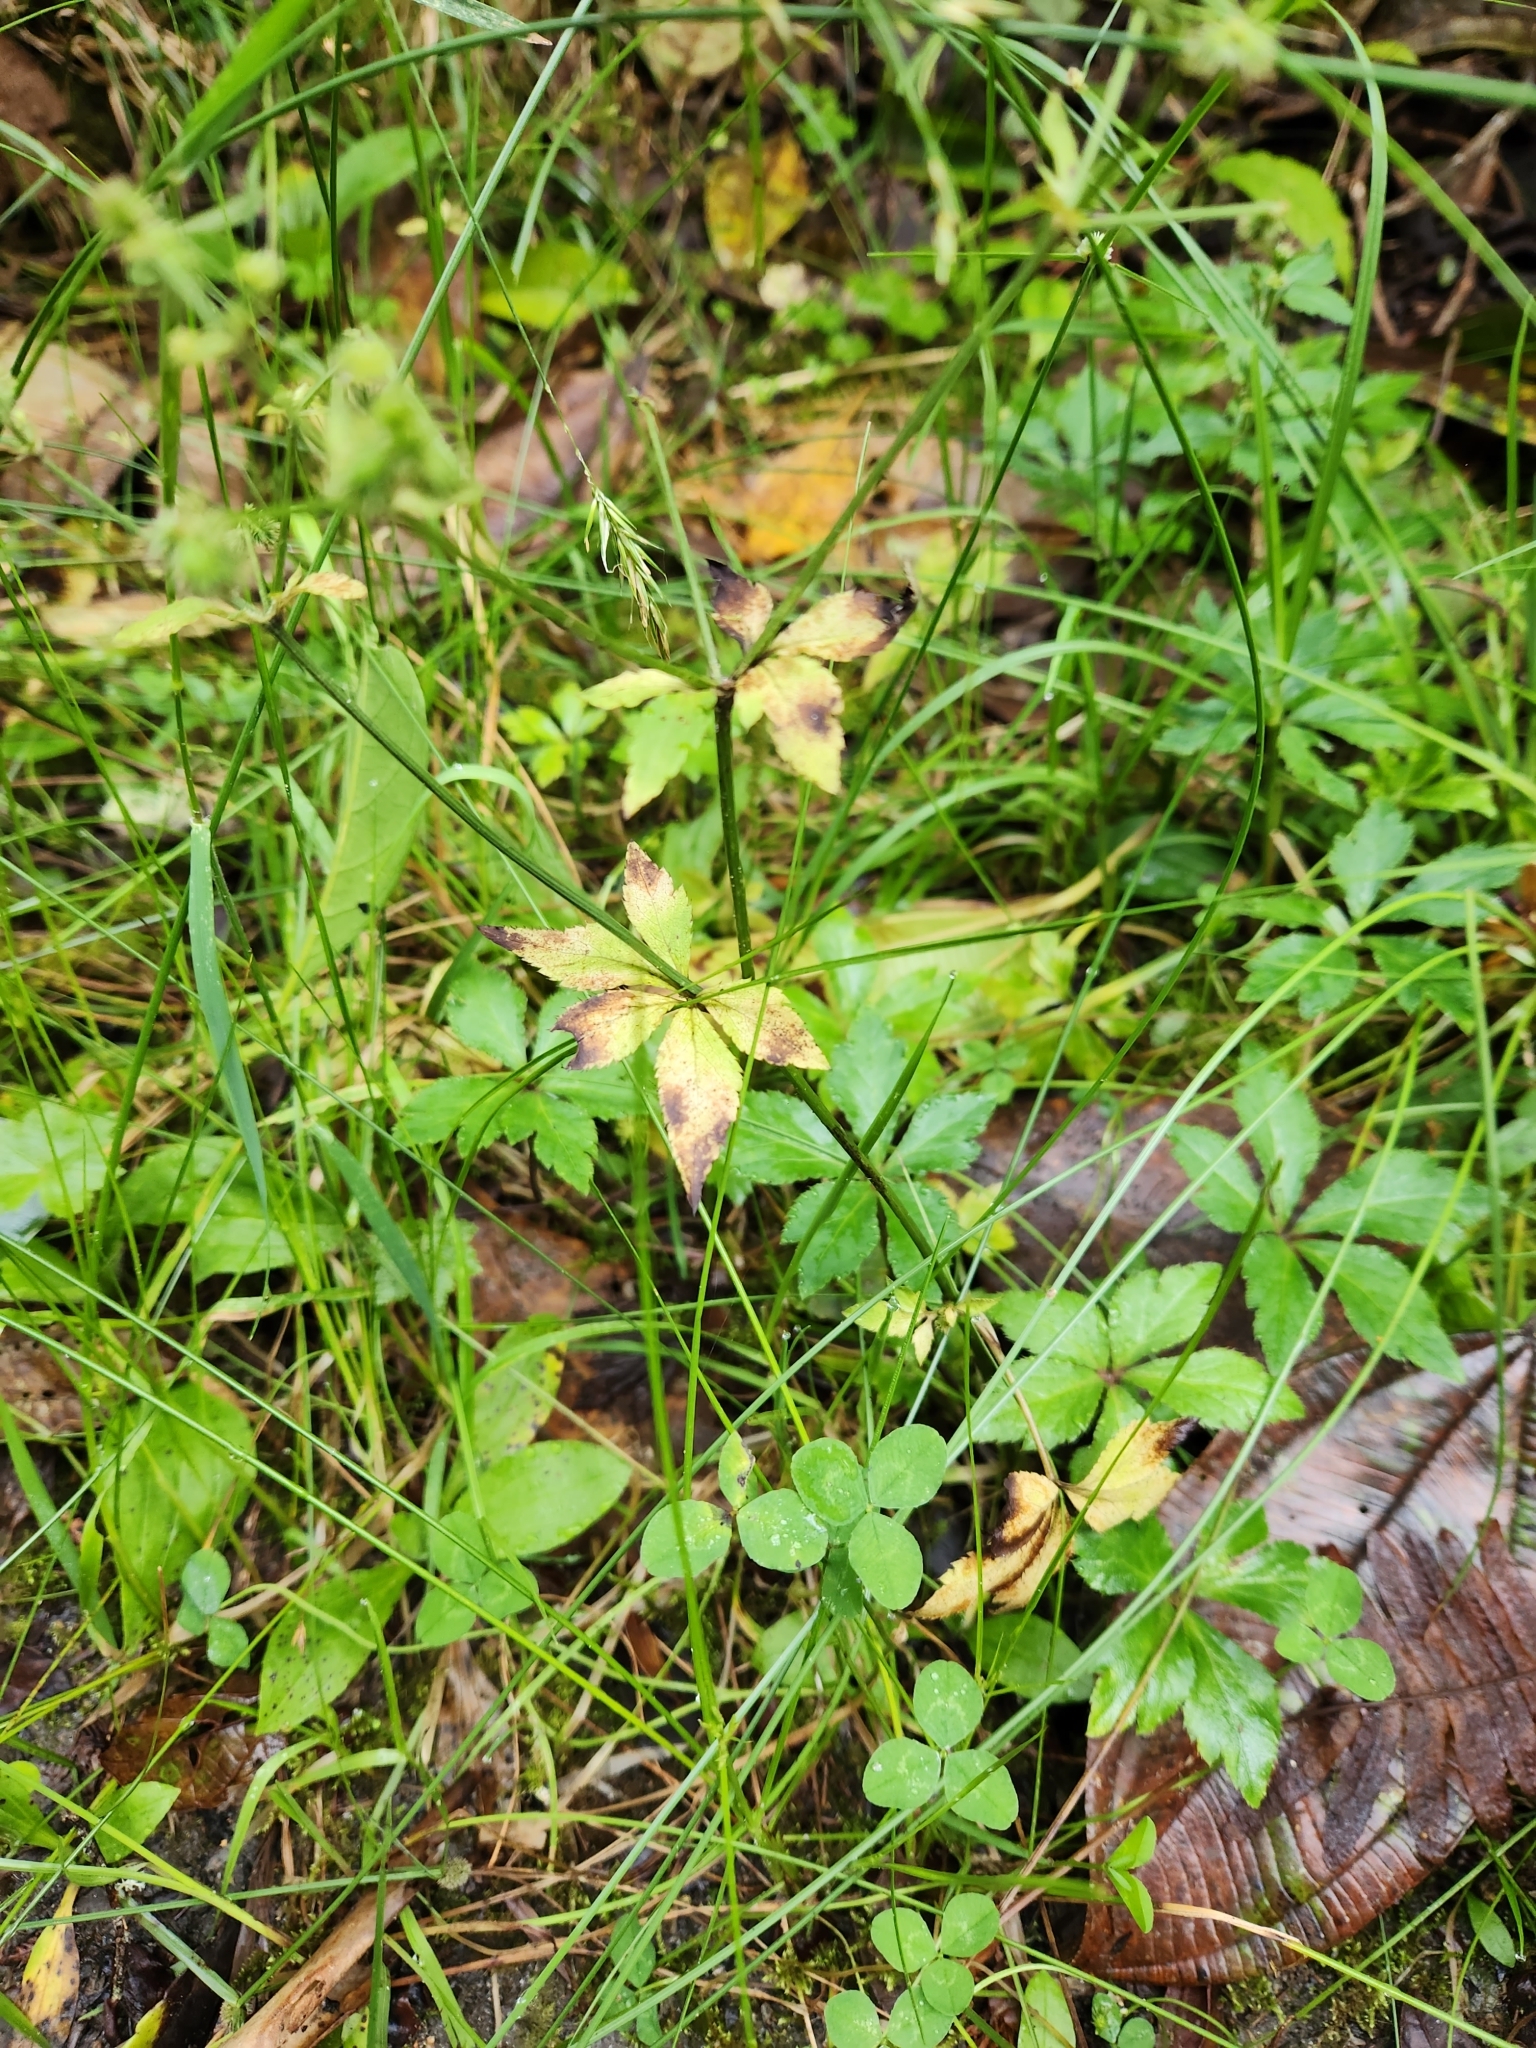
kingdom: Plantae
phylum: Tracheophyta
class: Magnoliopsida
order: Apiales
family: Apiaceae
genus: Sanicula
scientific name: Sanicula liberta
